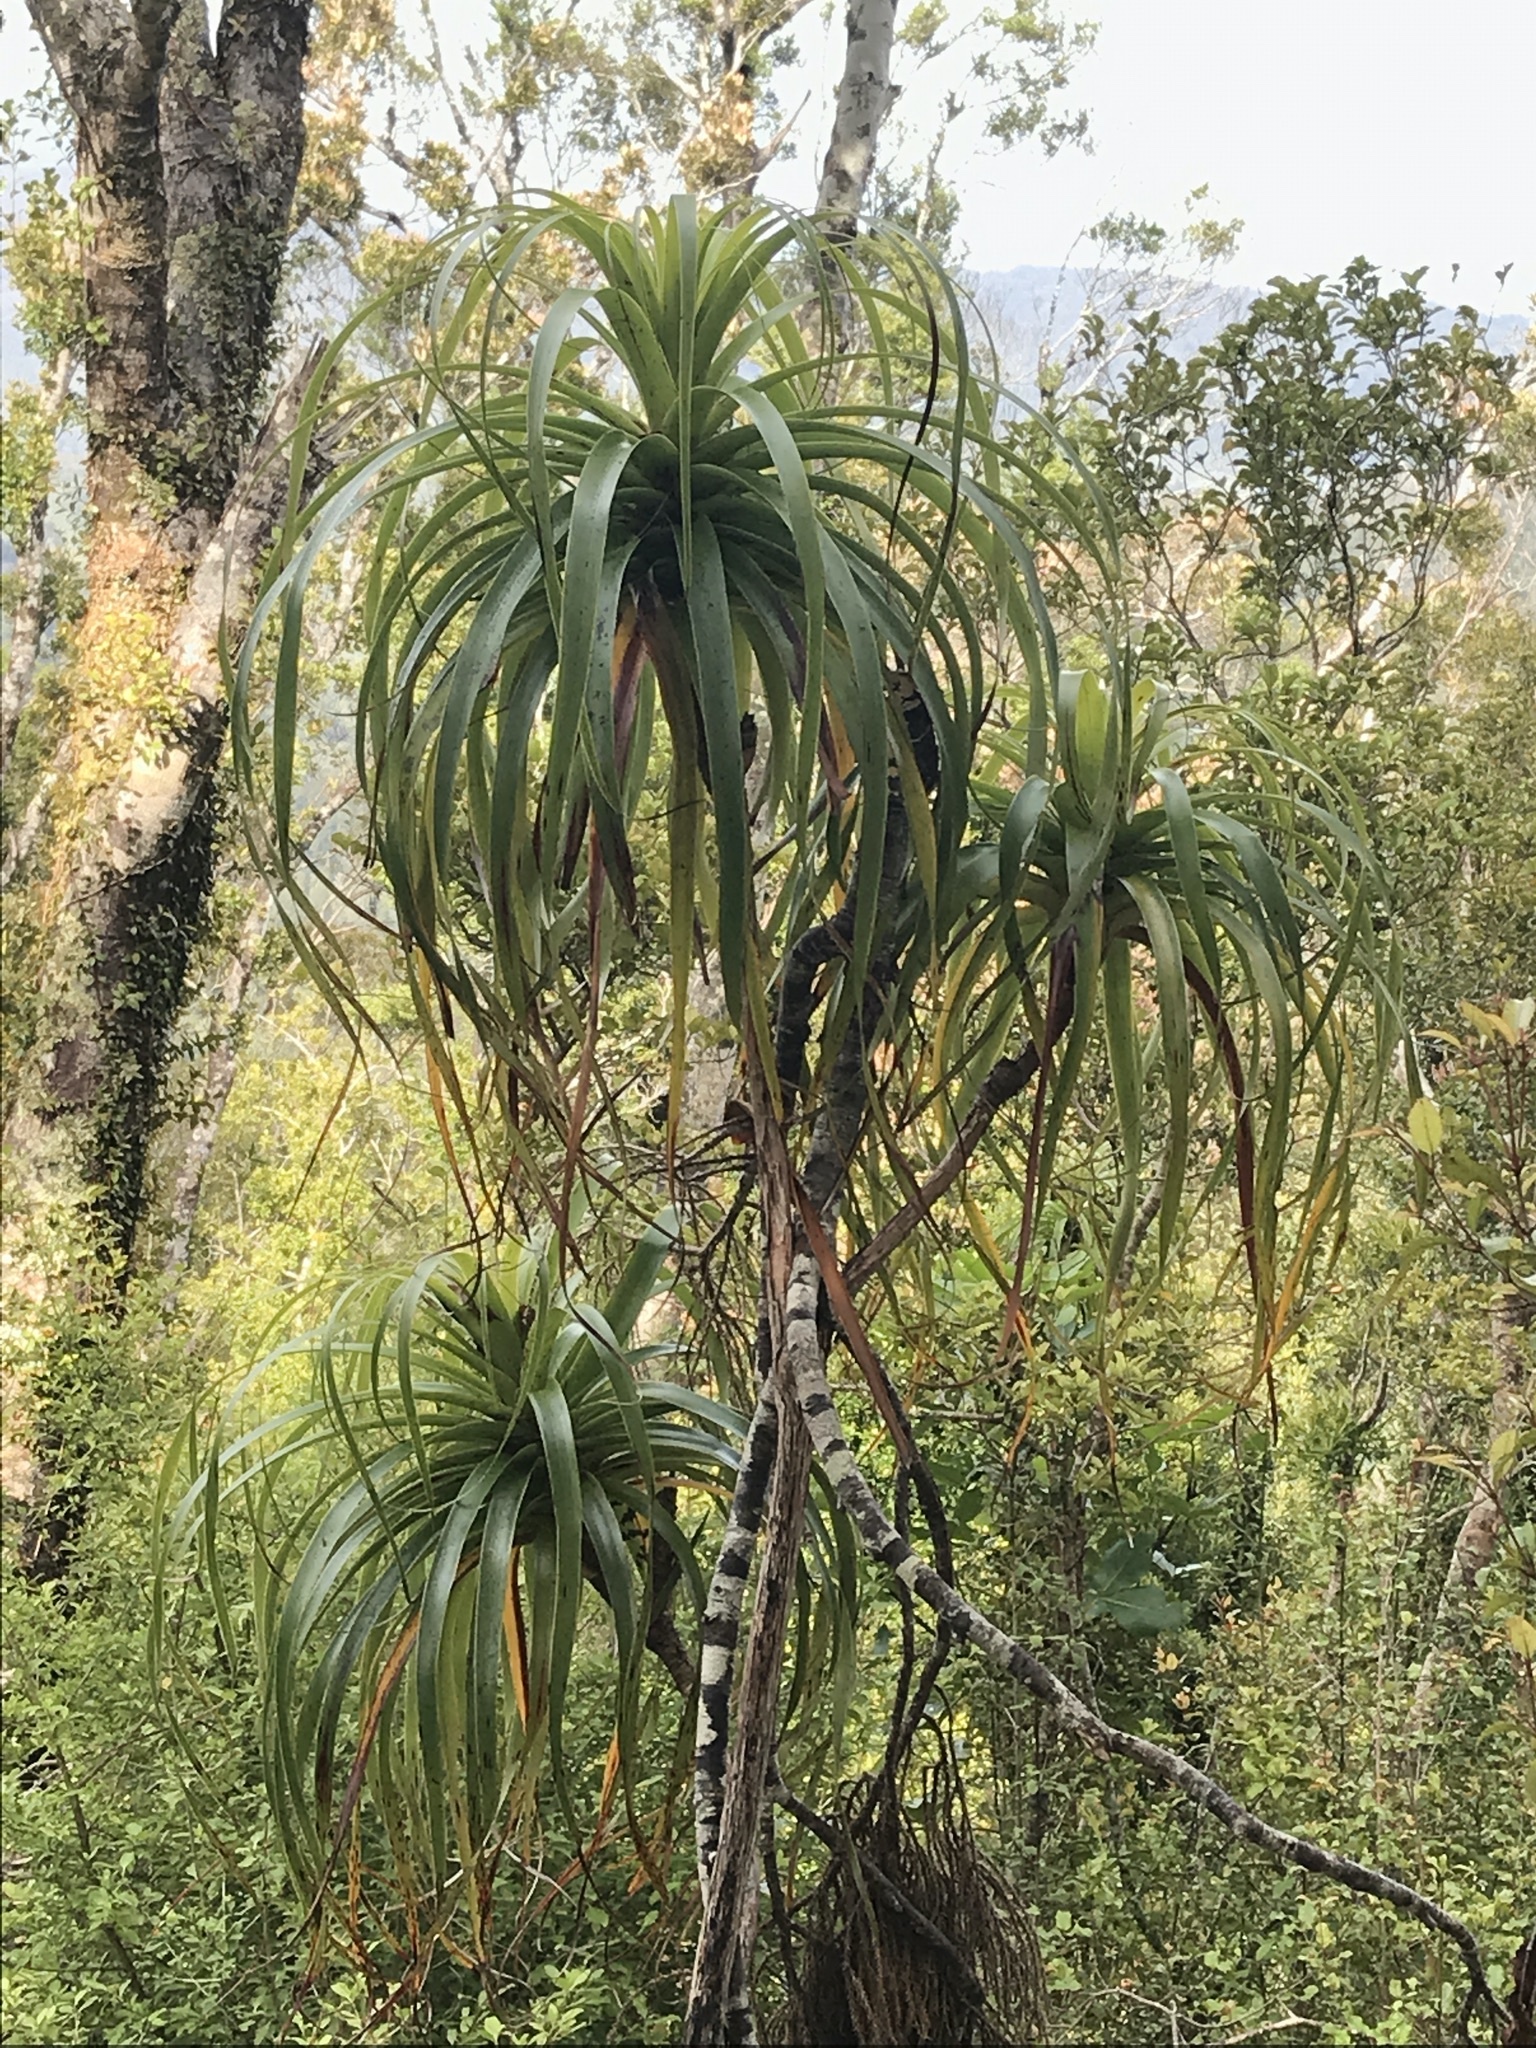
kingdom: Plantae
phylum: Tracheophyta
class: Magnoliopsida
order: Ericales
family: Ericaceae
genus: Dracophyllum
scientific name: Dracophyllum elegantissimum
